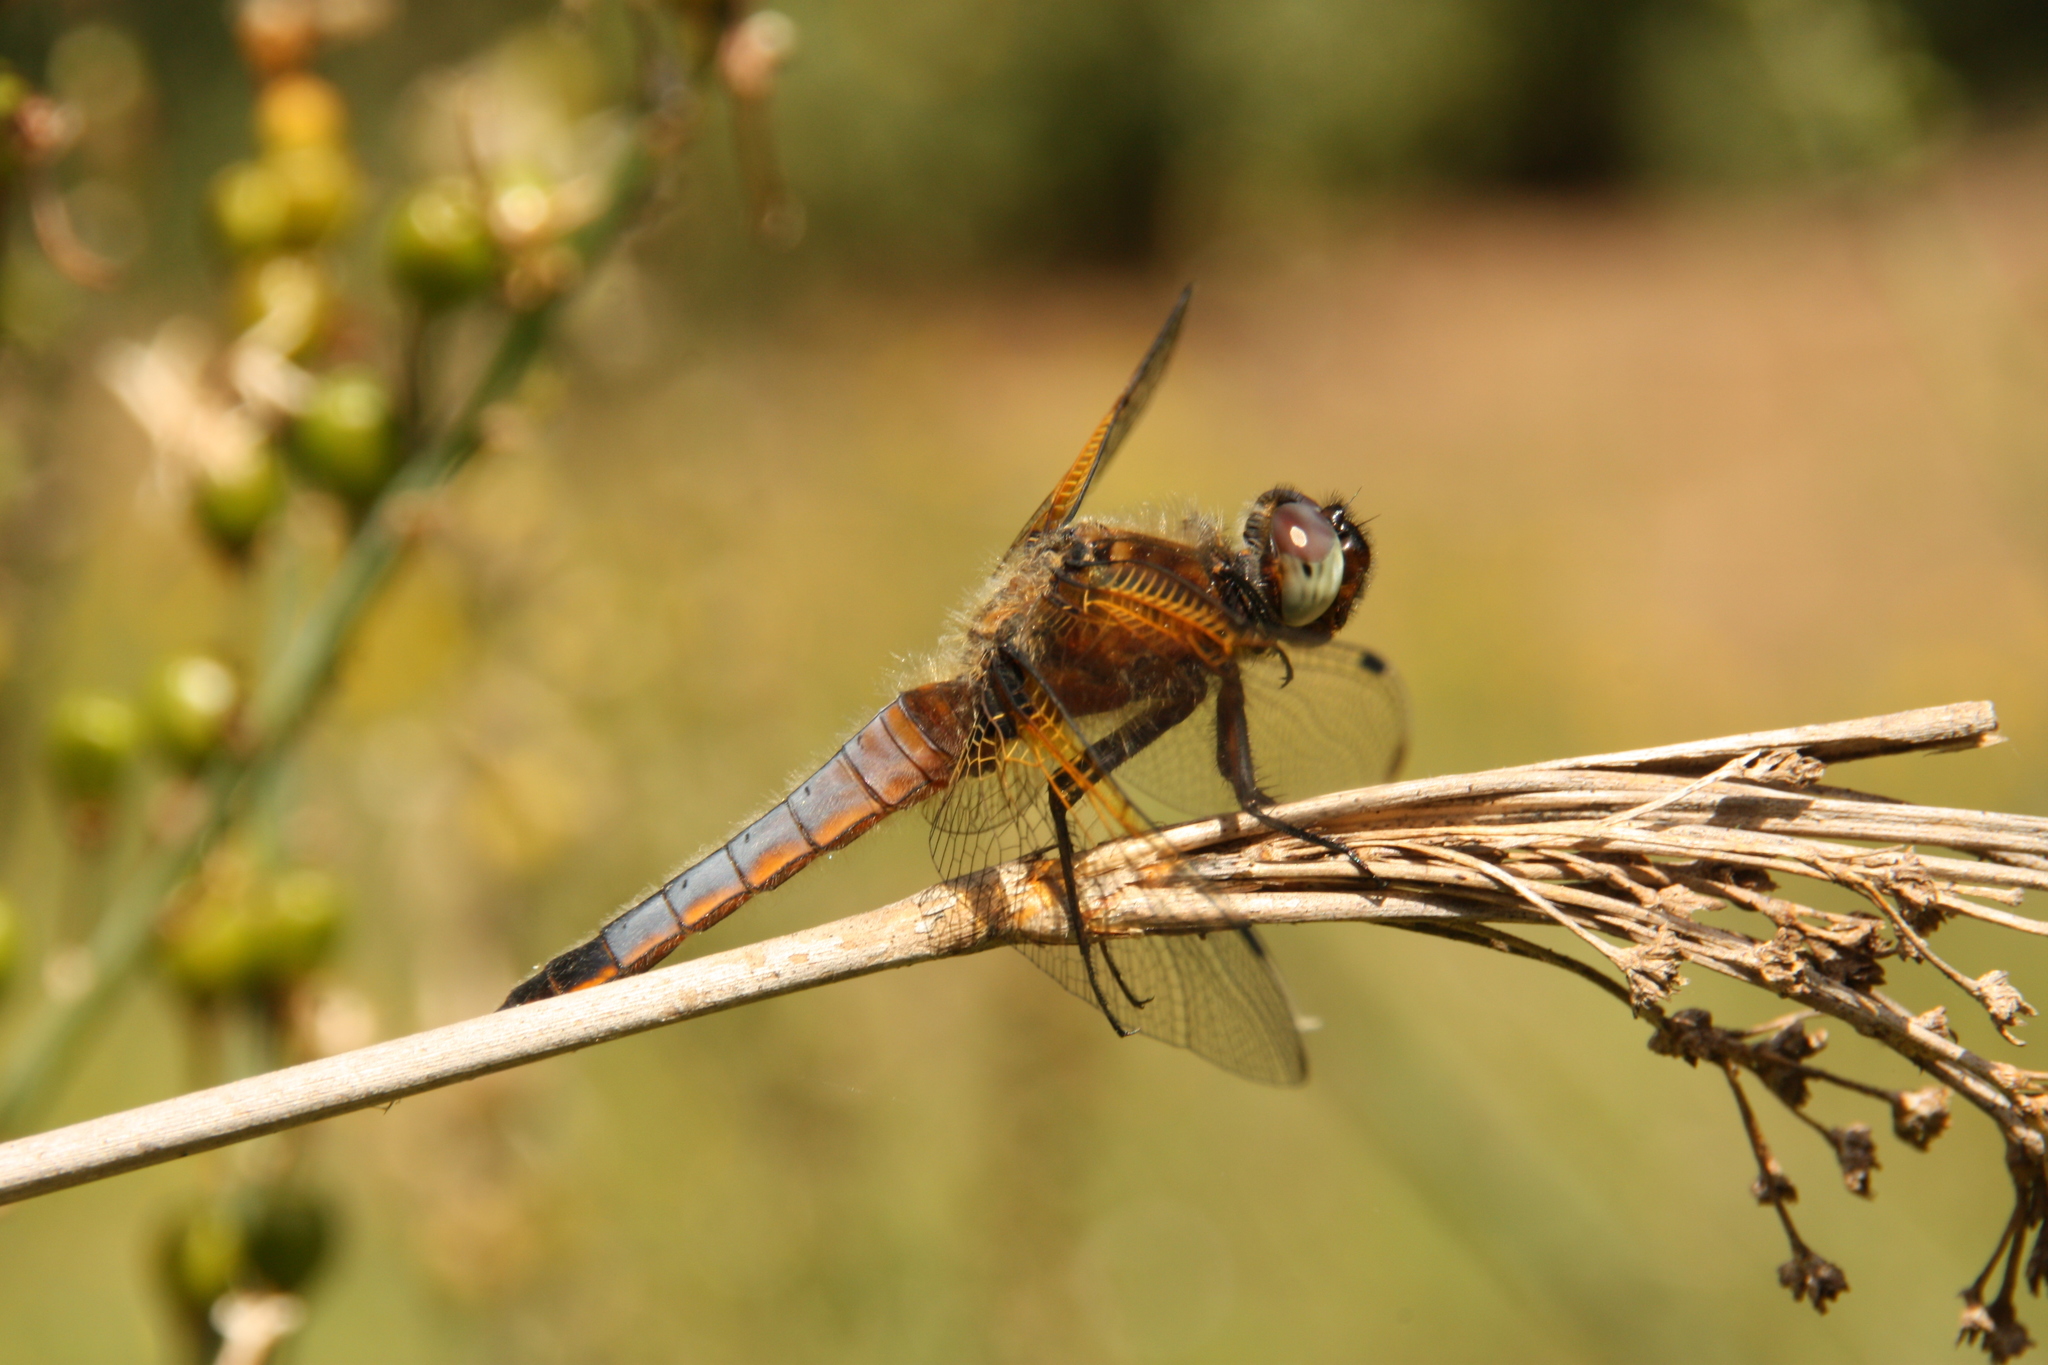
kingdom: Animalia
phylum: Arthropoda
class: Insecta
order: Odonata
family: Libellulidae
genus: Libellula
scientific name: Libellula fulva
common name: Blue chaser
